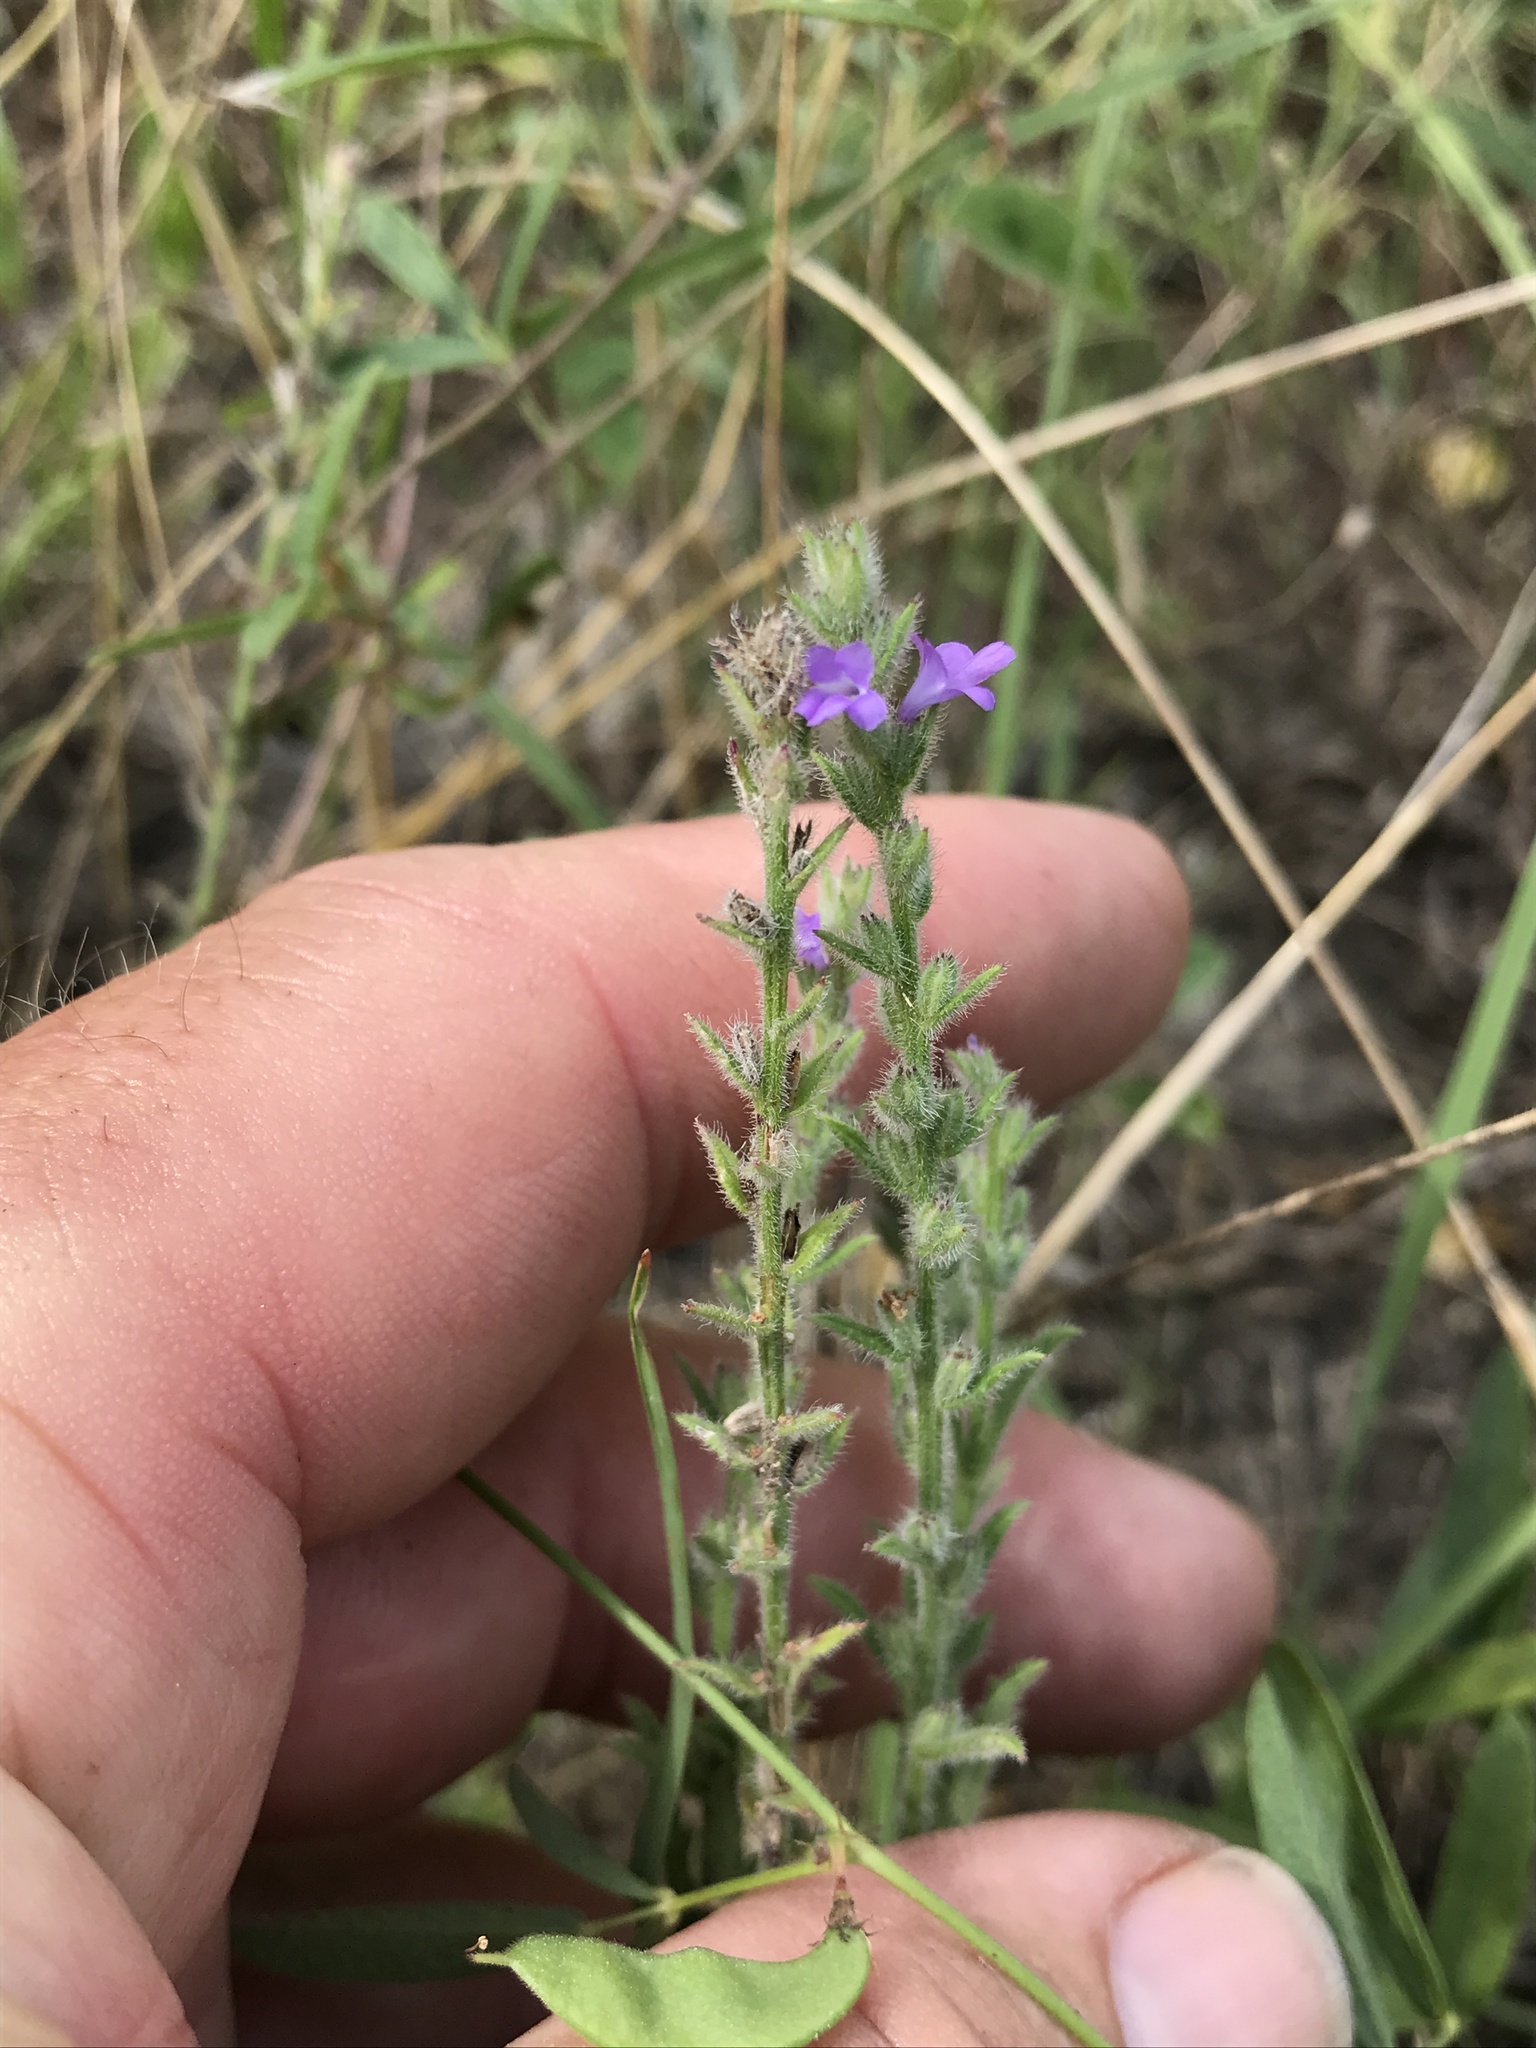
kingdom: Plantae
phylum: Tracheophyta
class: Magnoliopsida
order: Lamiales
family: Verbenaceae
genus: Verbena
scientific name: Verbena canescens
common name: Gray vervain
